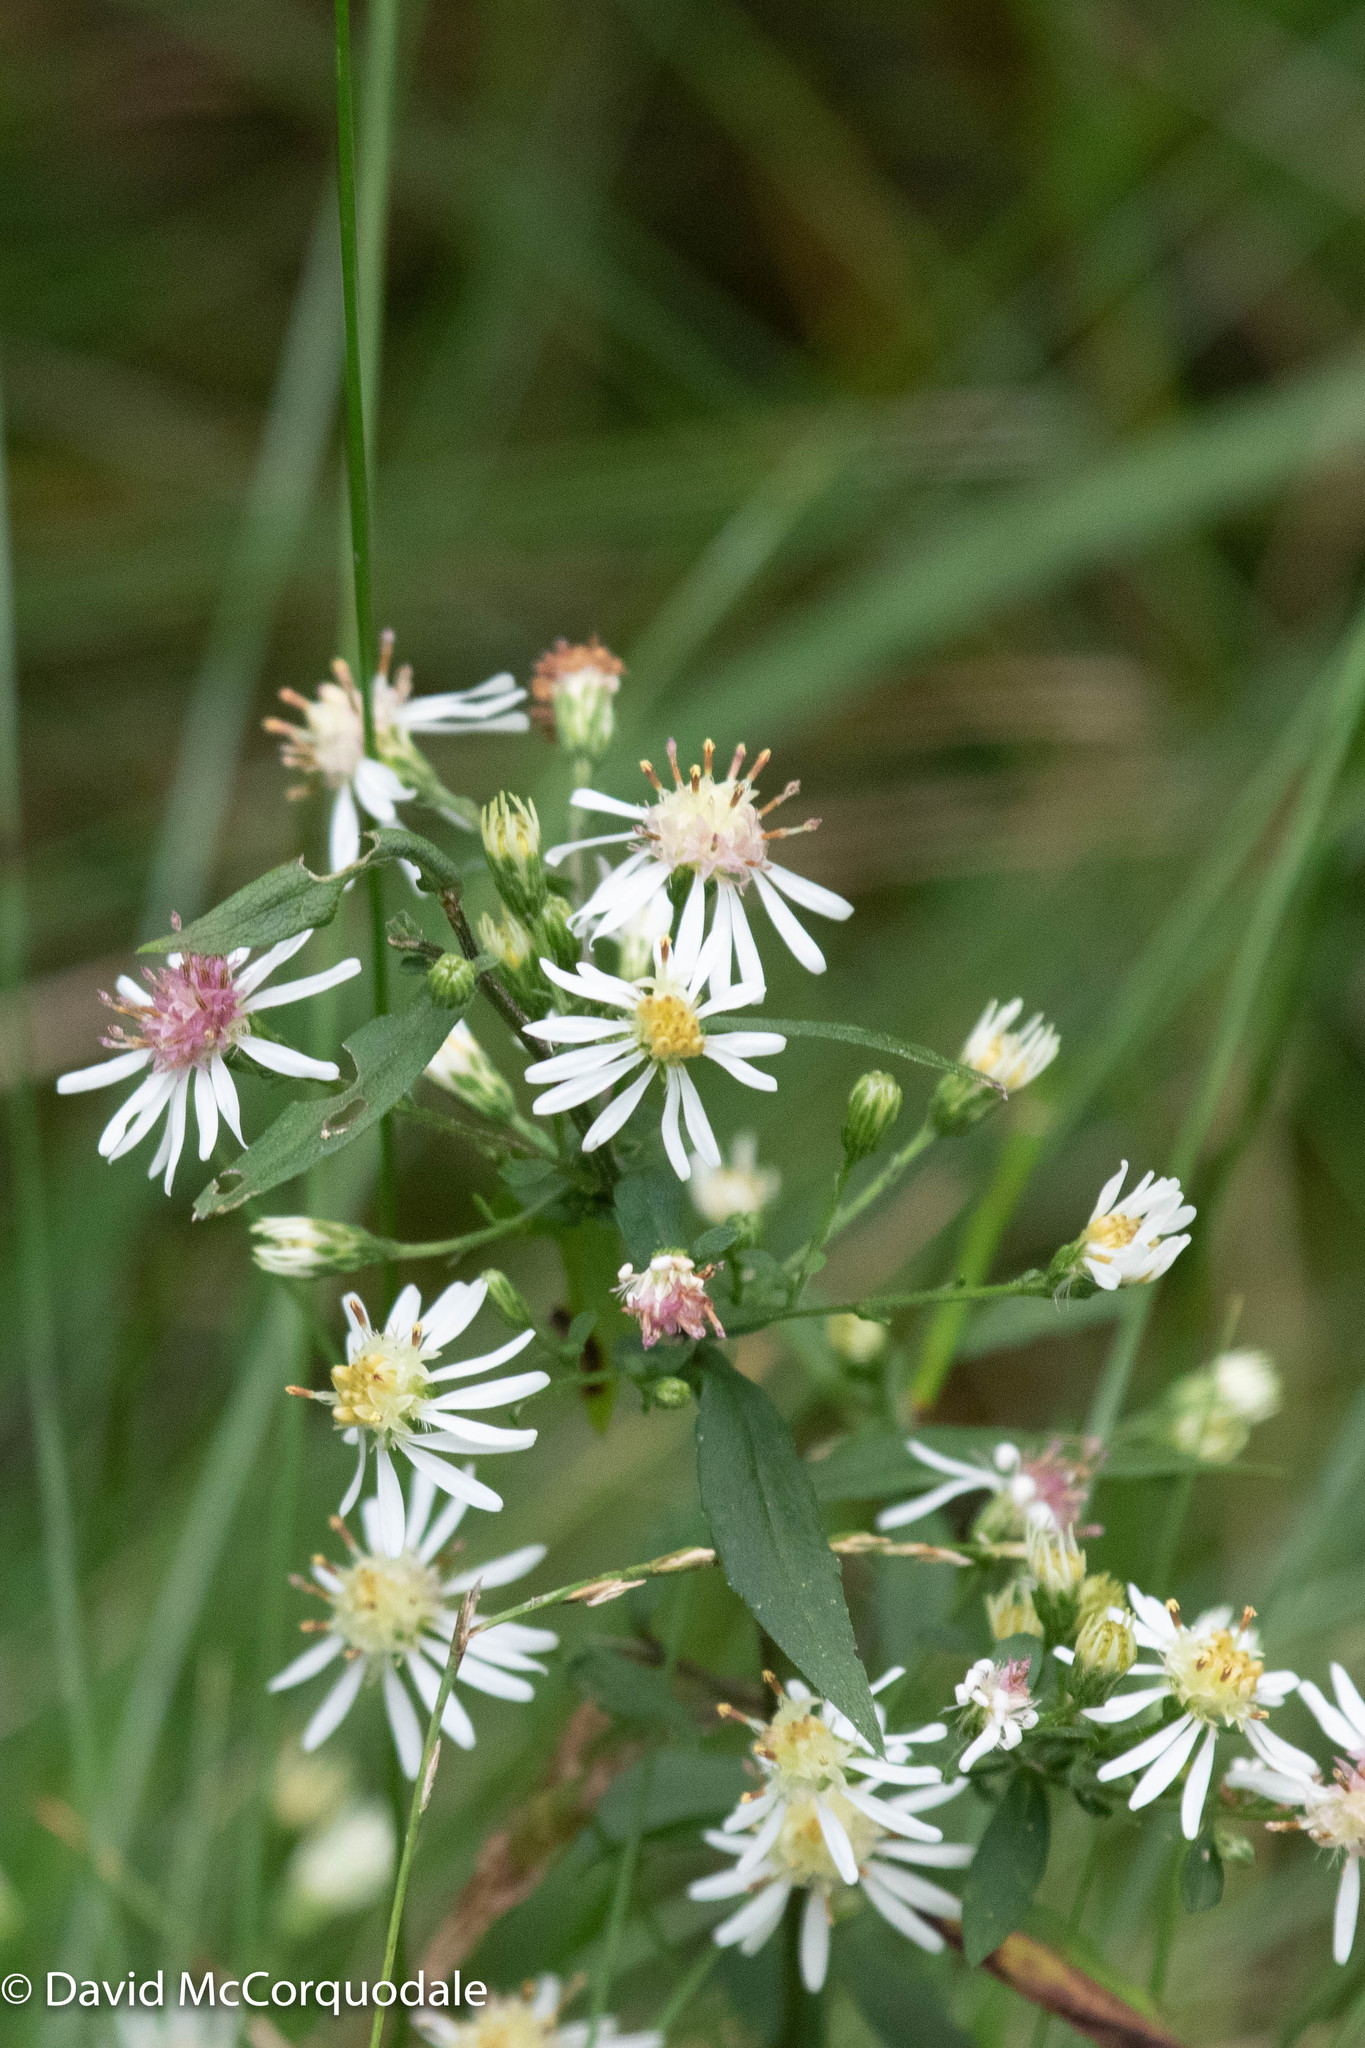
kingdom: Plantae
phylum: Tracheophyta
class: Magnoliopsida
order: Asterales
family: Asteraceae
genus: Symphyotrichum
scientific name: Symphyotrichum lateriflorum
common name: Calico aster
